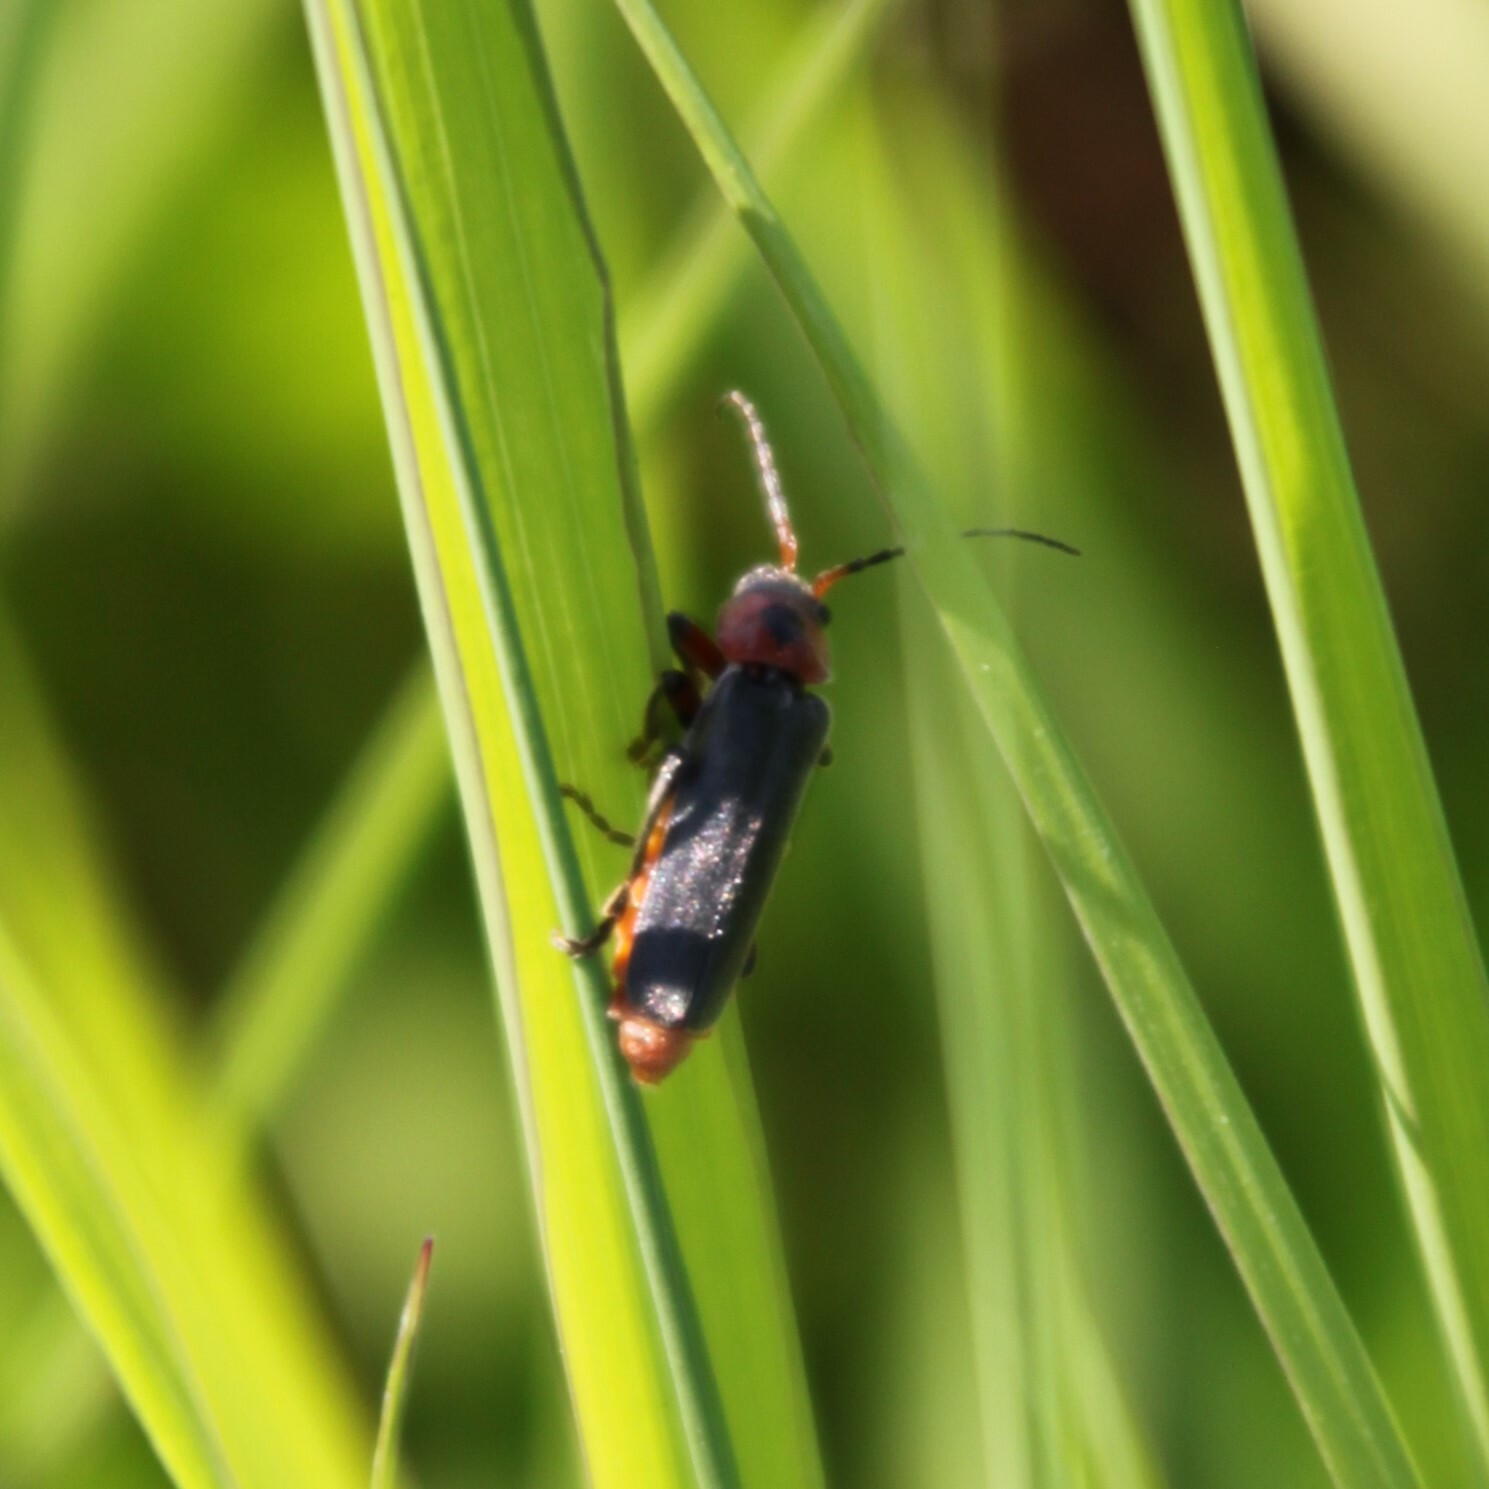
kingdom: Animalia
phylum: Arthropoda
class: Insecta
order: Coleoptera
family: Cantharidae
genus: Cantharis
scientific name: Cantharis rustica
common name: Soldier beetle
